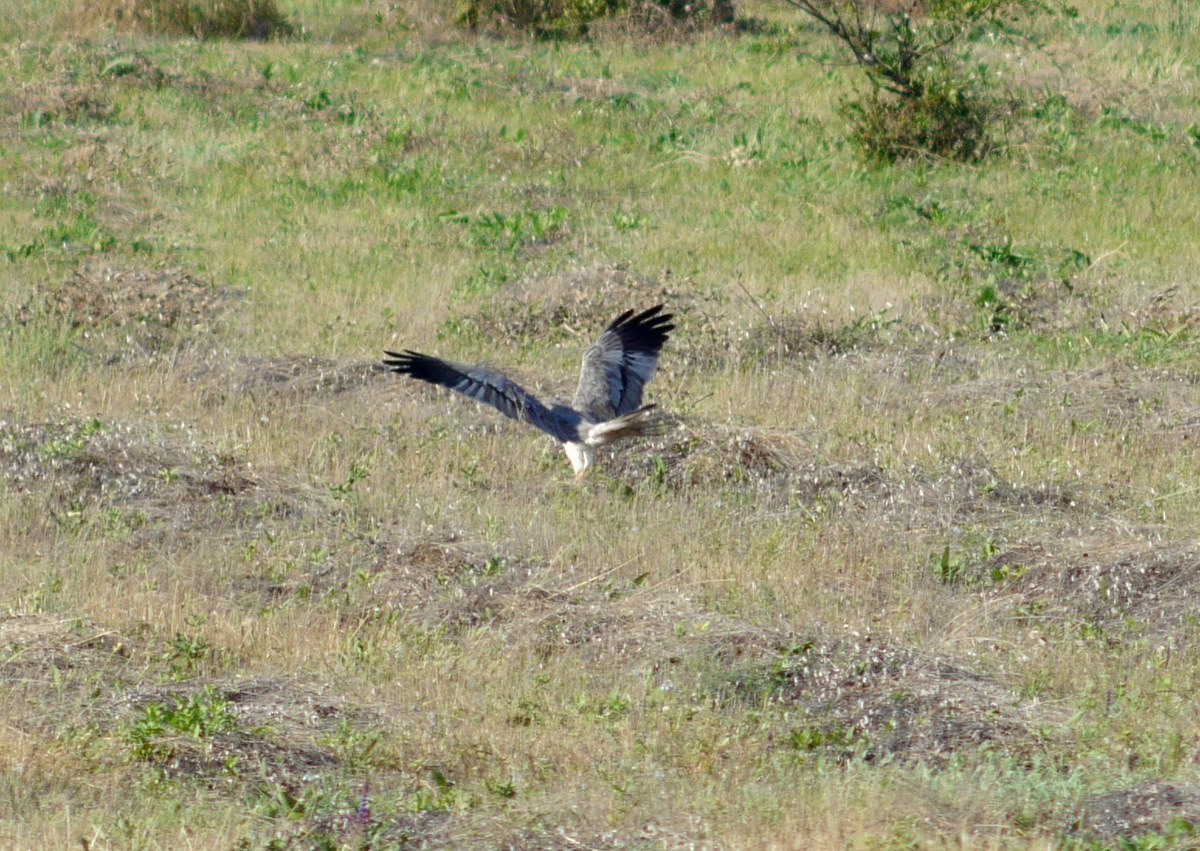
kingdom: Animalia
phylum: Chordata
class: Aves
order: Accipitriformes
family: Accipitridae
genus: Circus
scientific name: Circus pygargus
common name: Montagu's harrier
